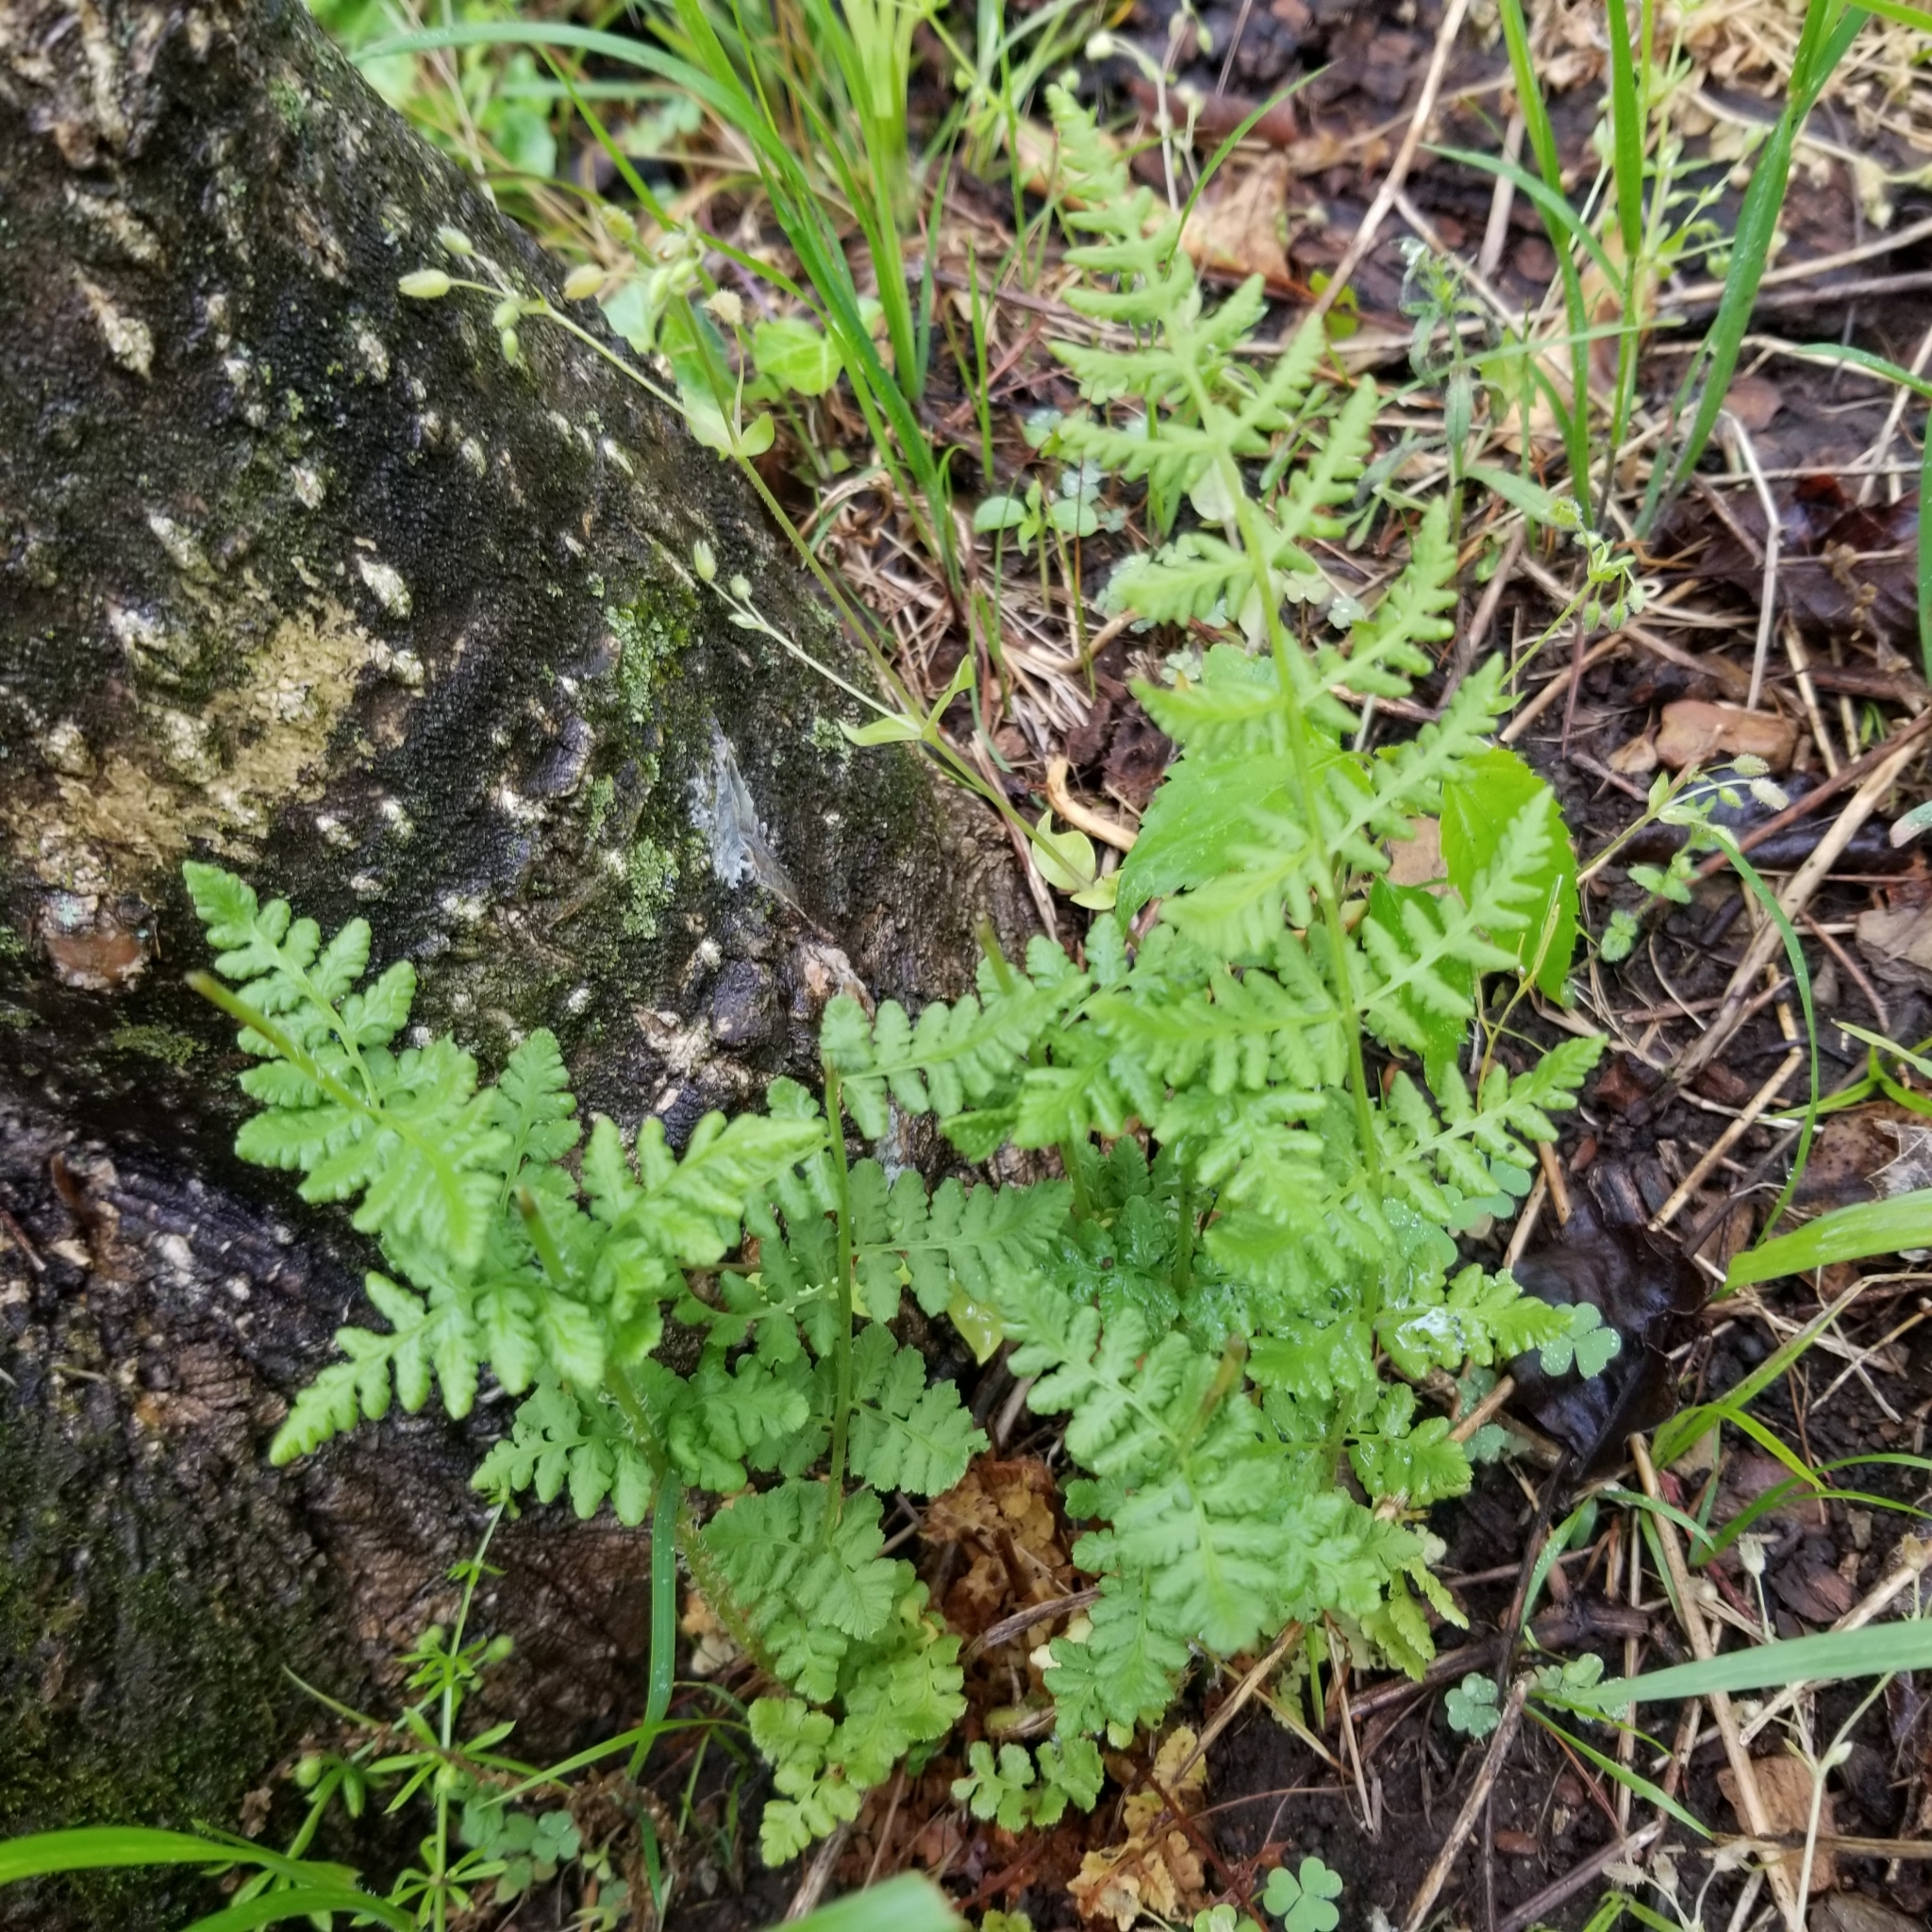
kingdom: Plantae
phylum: Tracheophyta
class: Polypodiopsida
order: Polypodiales
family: Woodsiaceae
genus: Physematium
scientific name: Physematium obtusum
